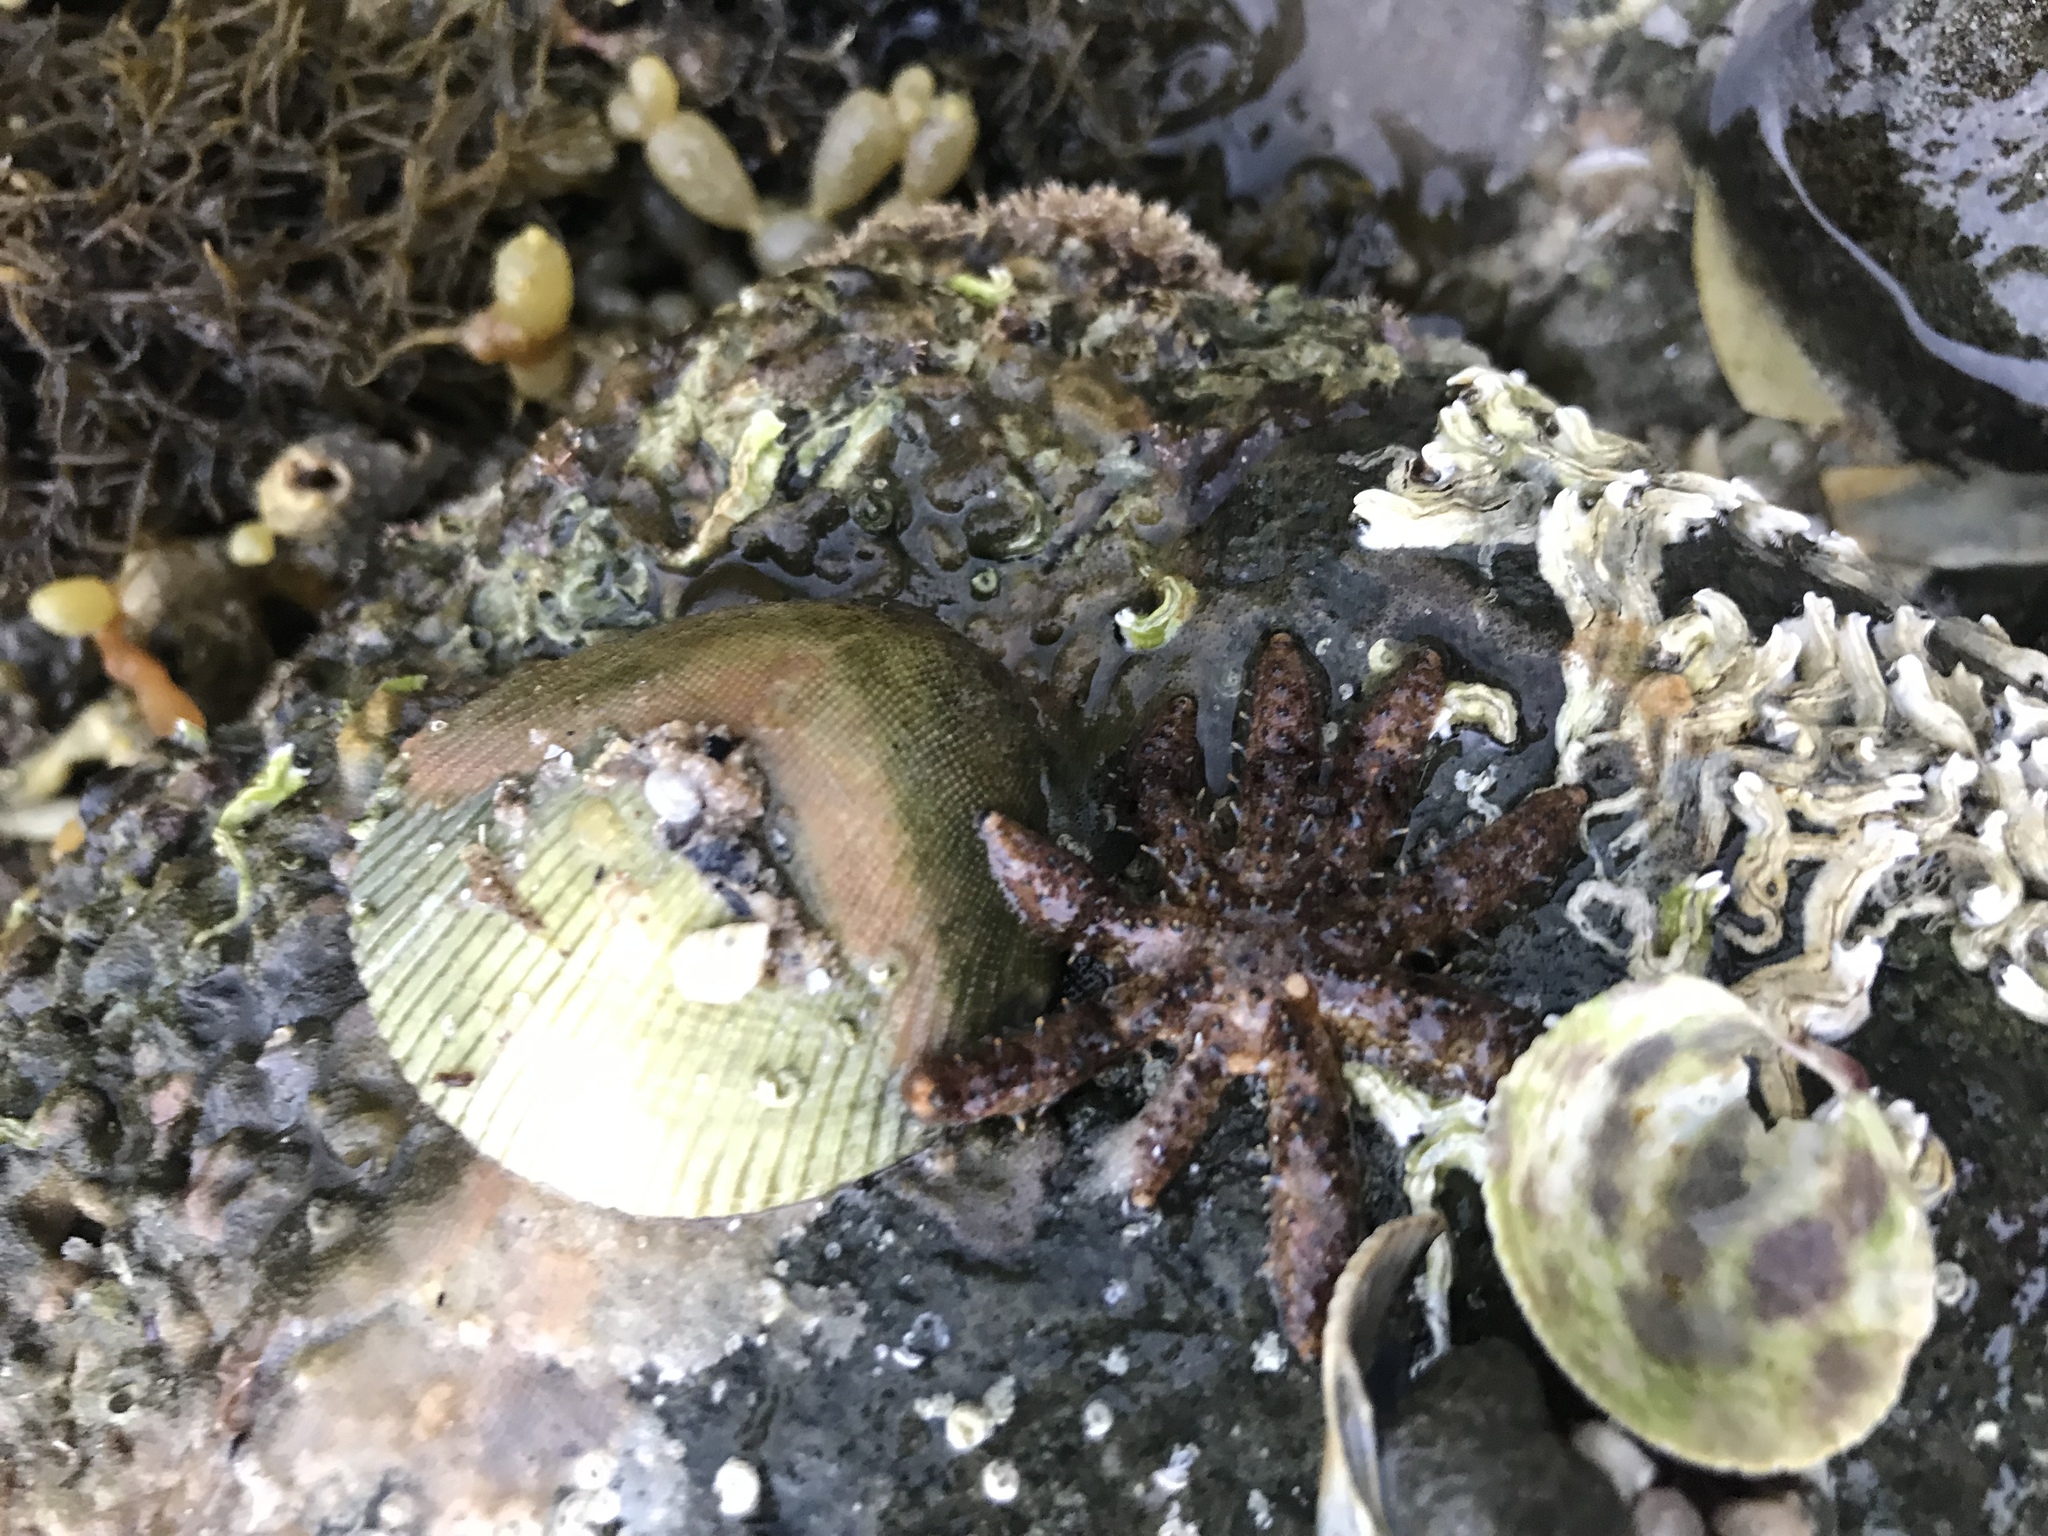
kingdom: Animalia
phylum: Echinodermata
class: Asteroidea
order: Forcipulatida
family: Asteriidae
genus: Coscinasterias
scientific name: Coscinasterias muricata
